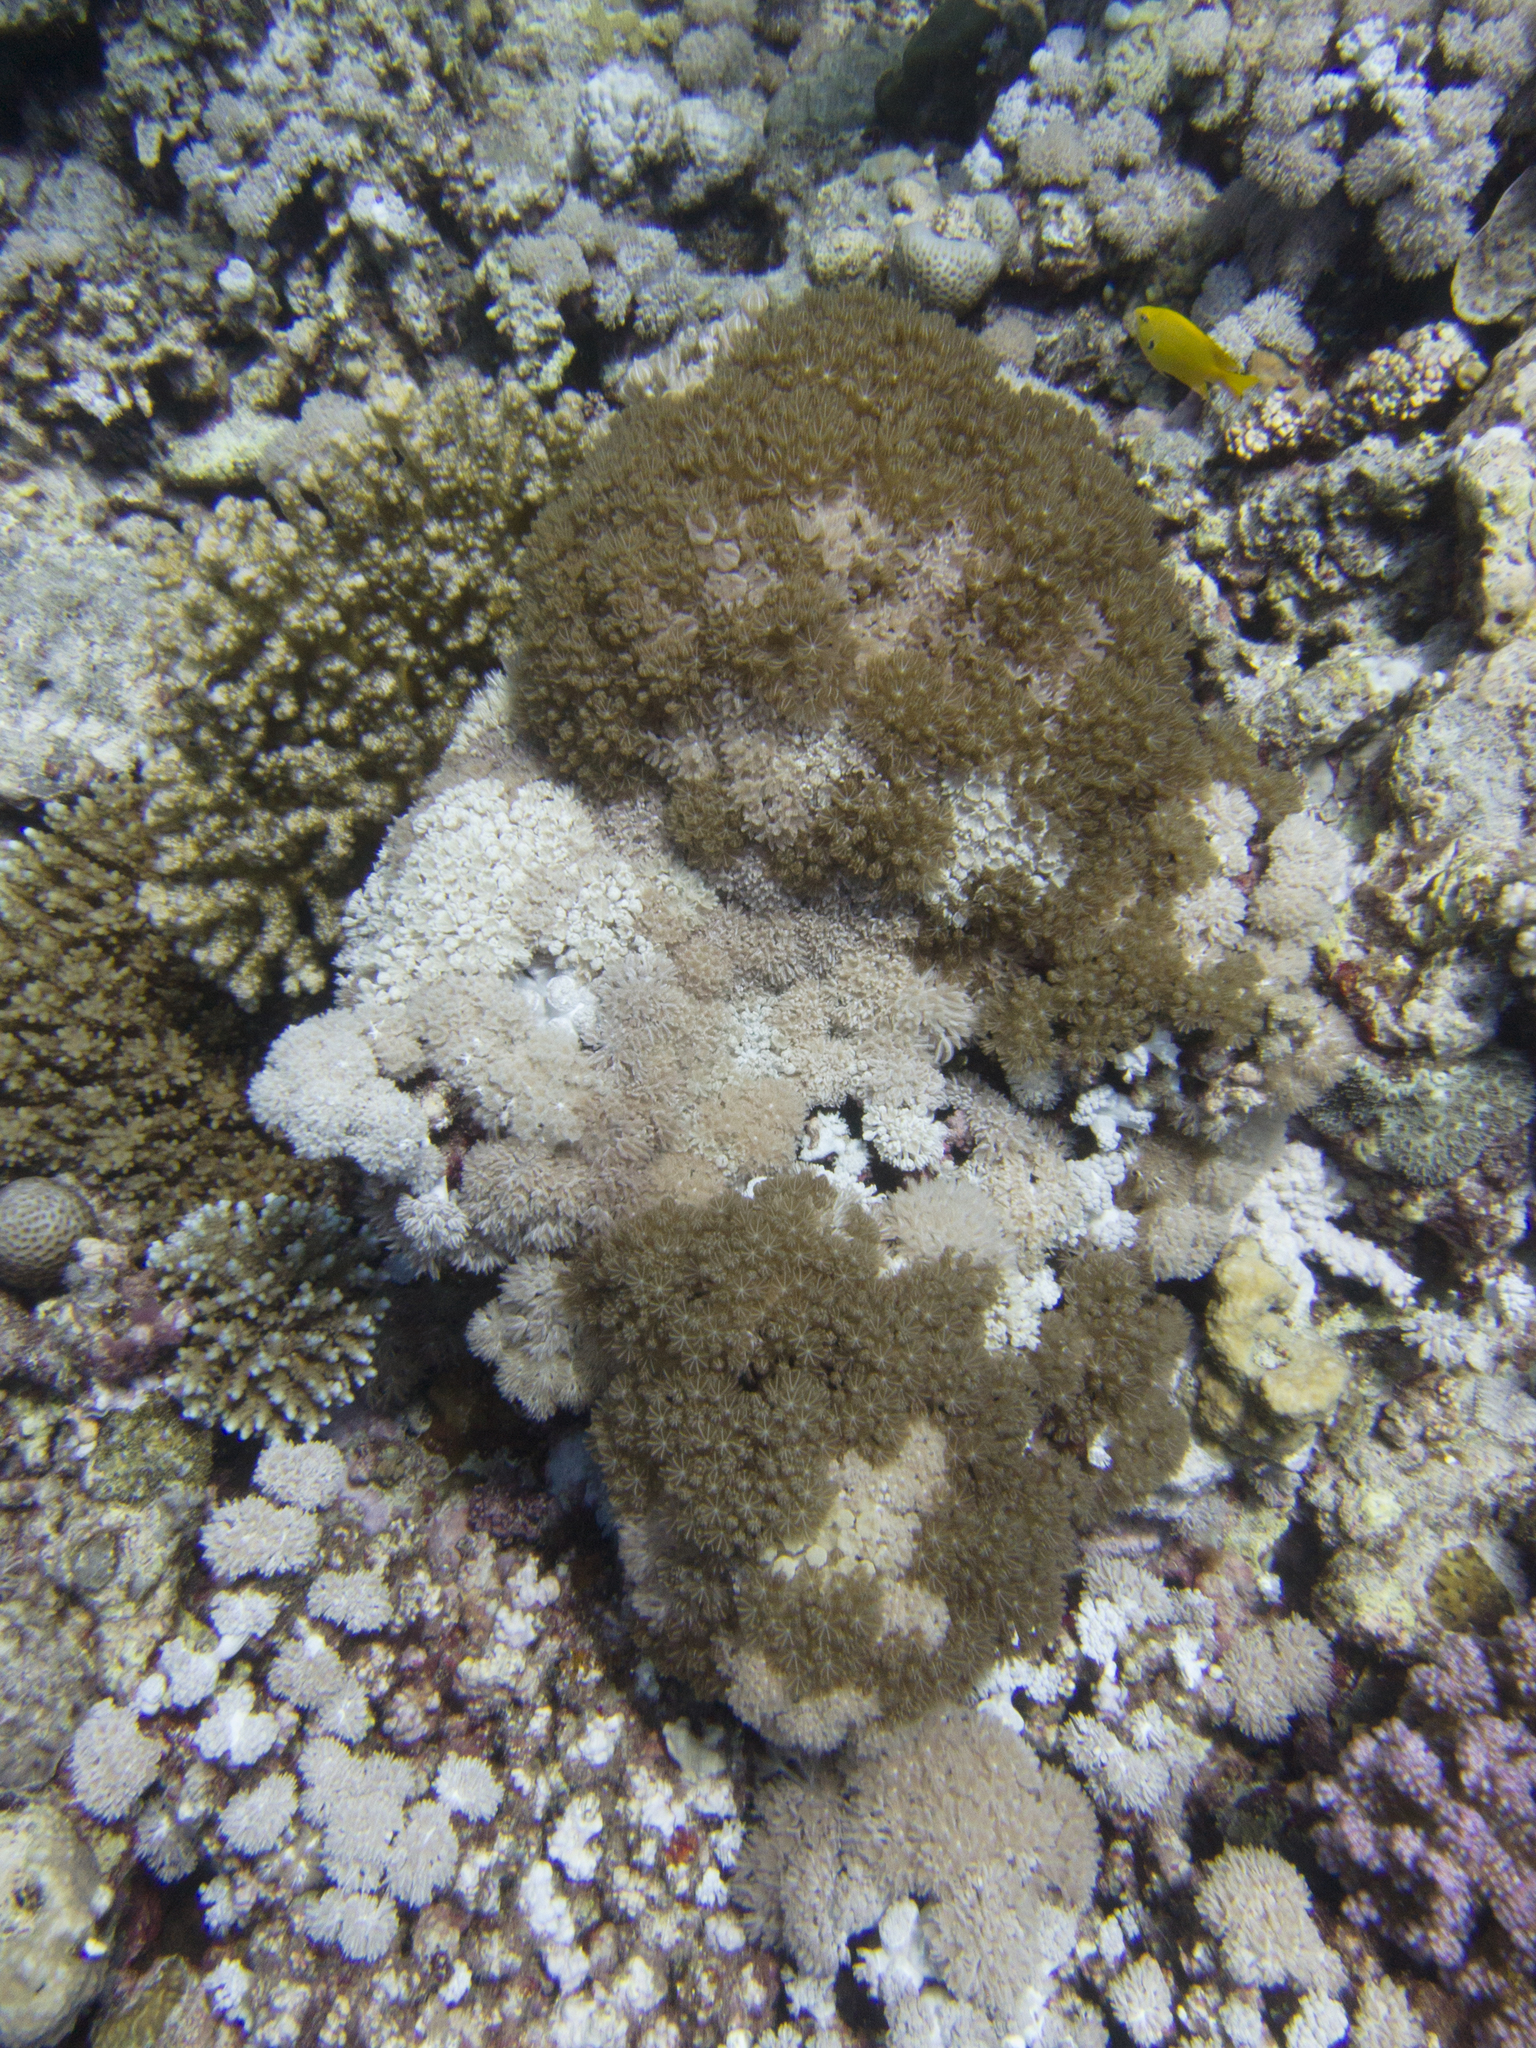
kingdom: Animalia
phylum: Chordata
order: Perciformes
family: Pomacentridae
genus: Pomacentrus
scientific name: Pomacentrus sulfureus
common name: Sulfur damsel
